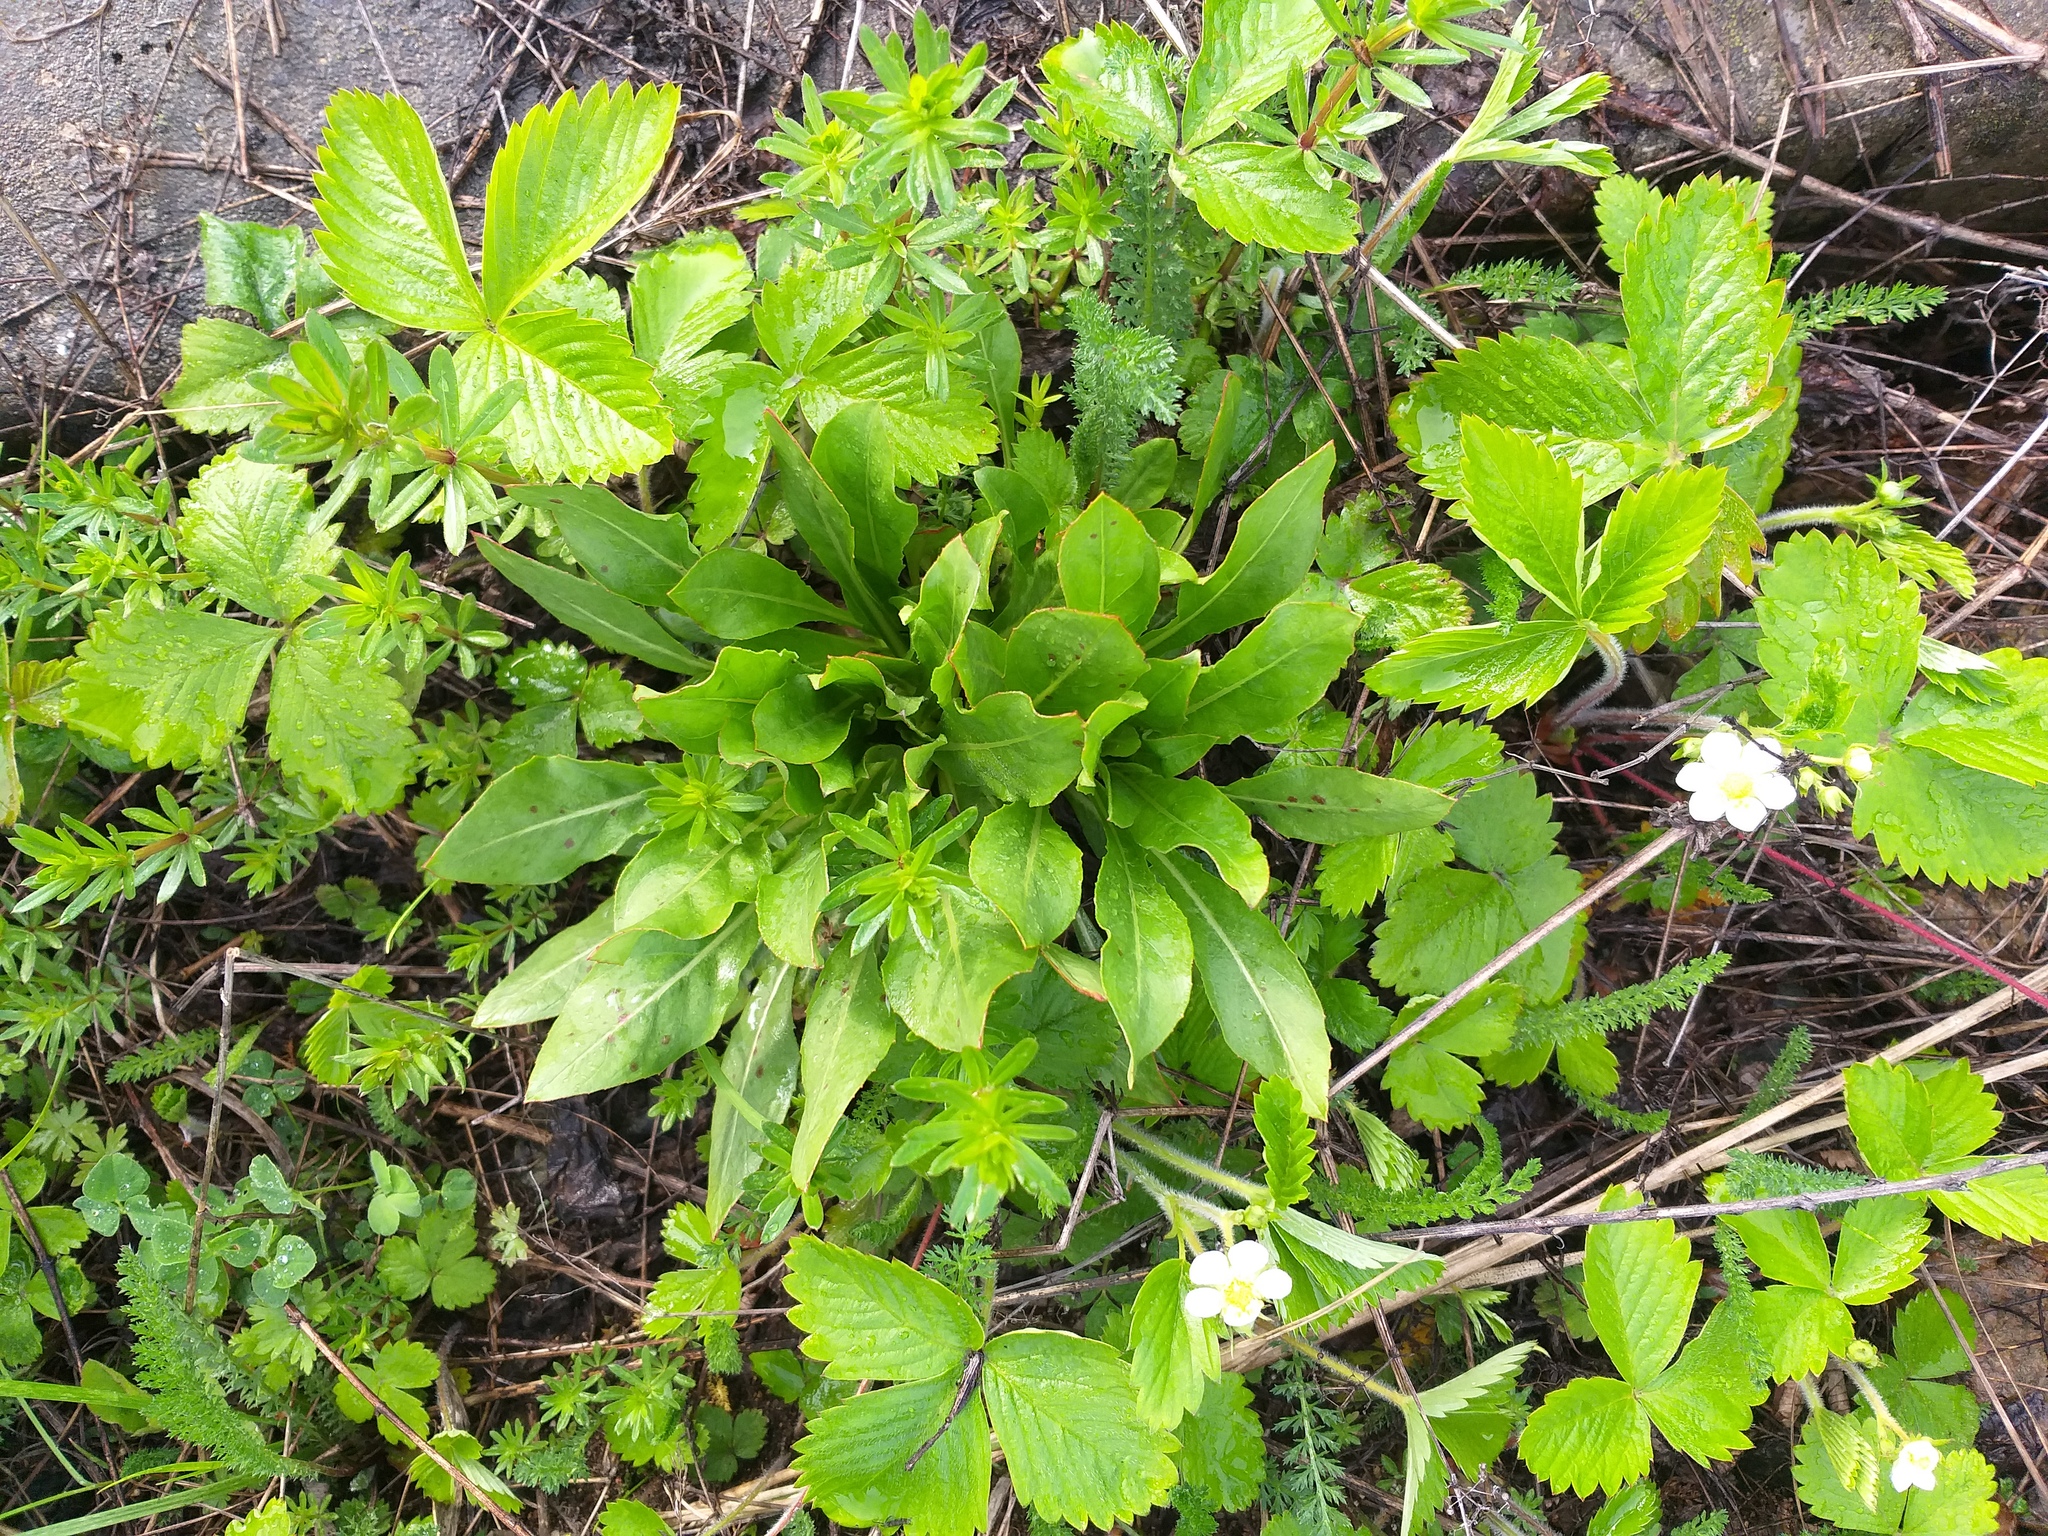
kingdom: Plantae
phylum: Tracheophyta
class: Magnoliopsida
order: Myrtales
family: Onagraceae
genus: Oenothera
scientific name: Oenothera
